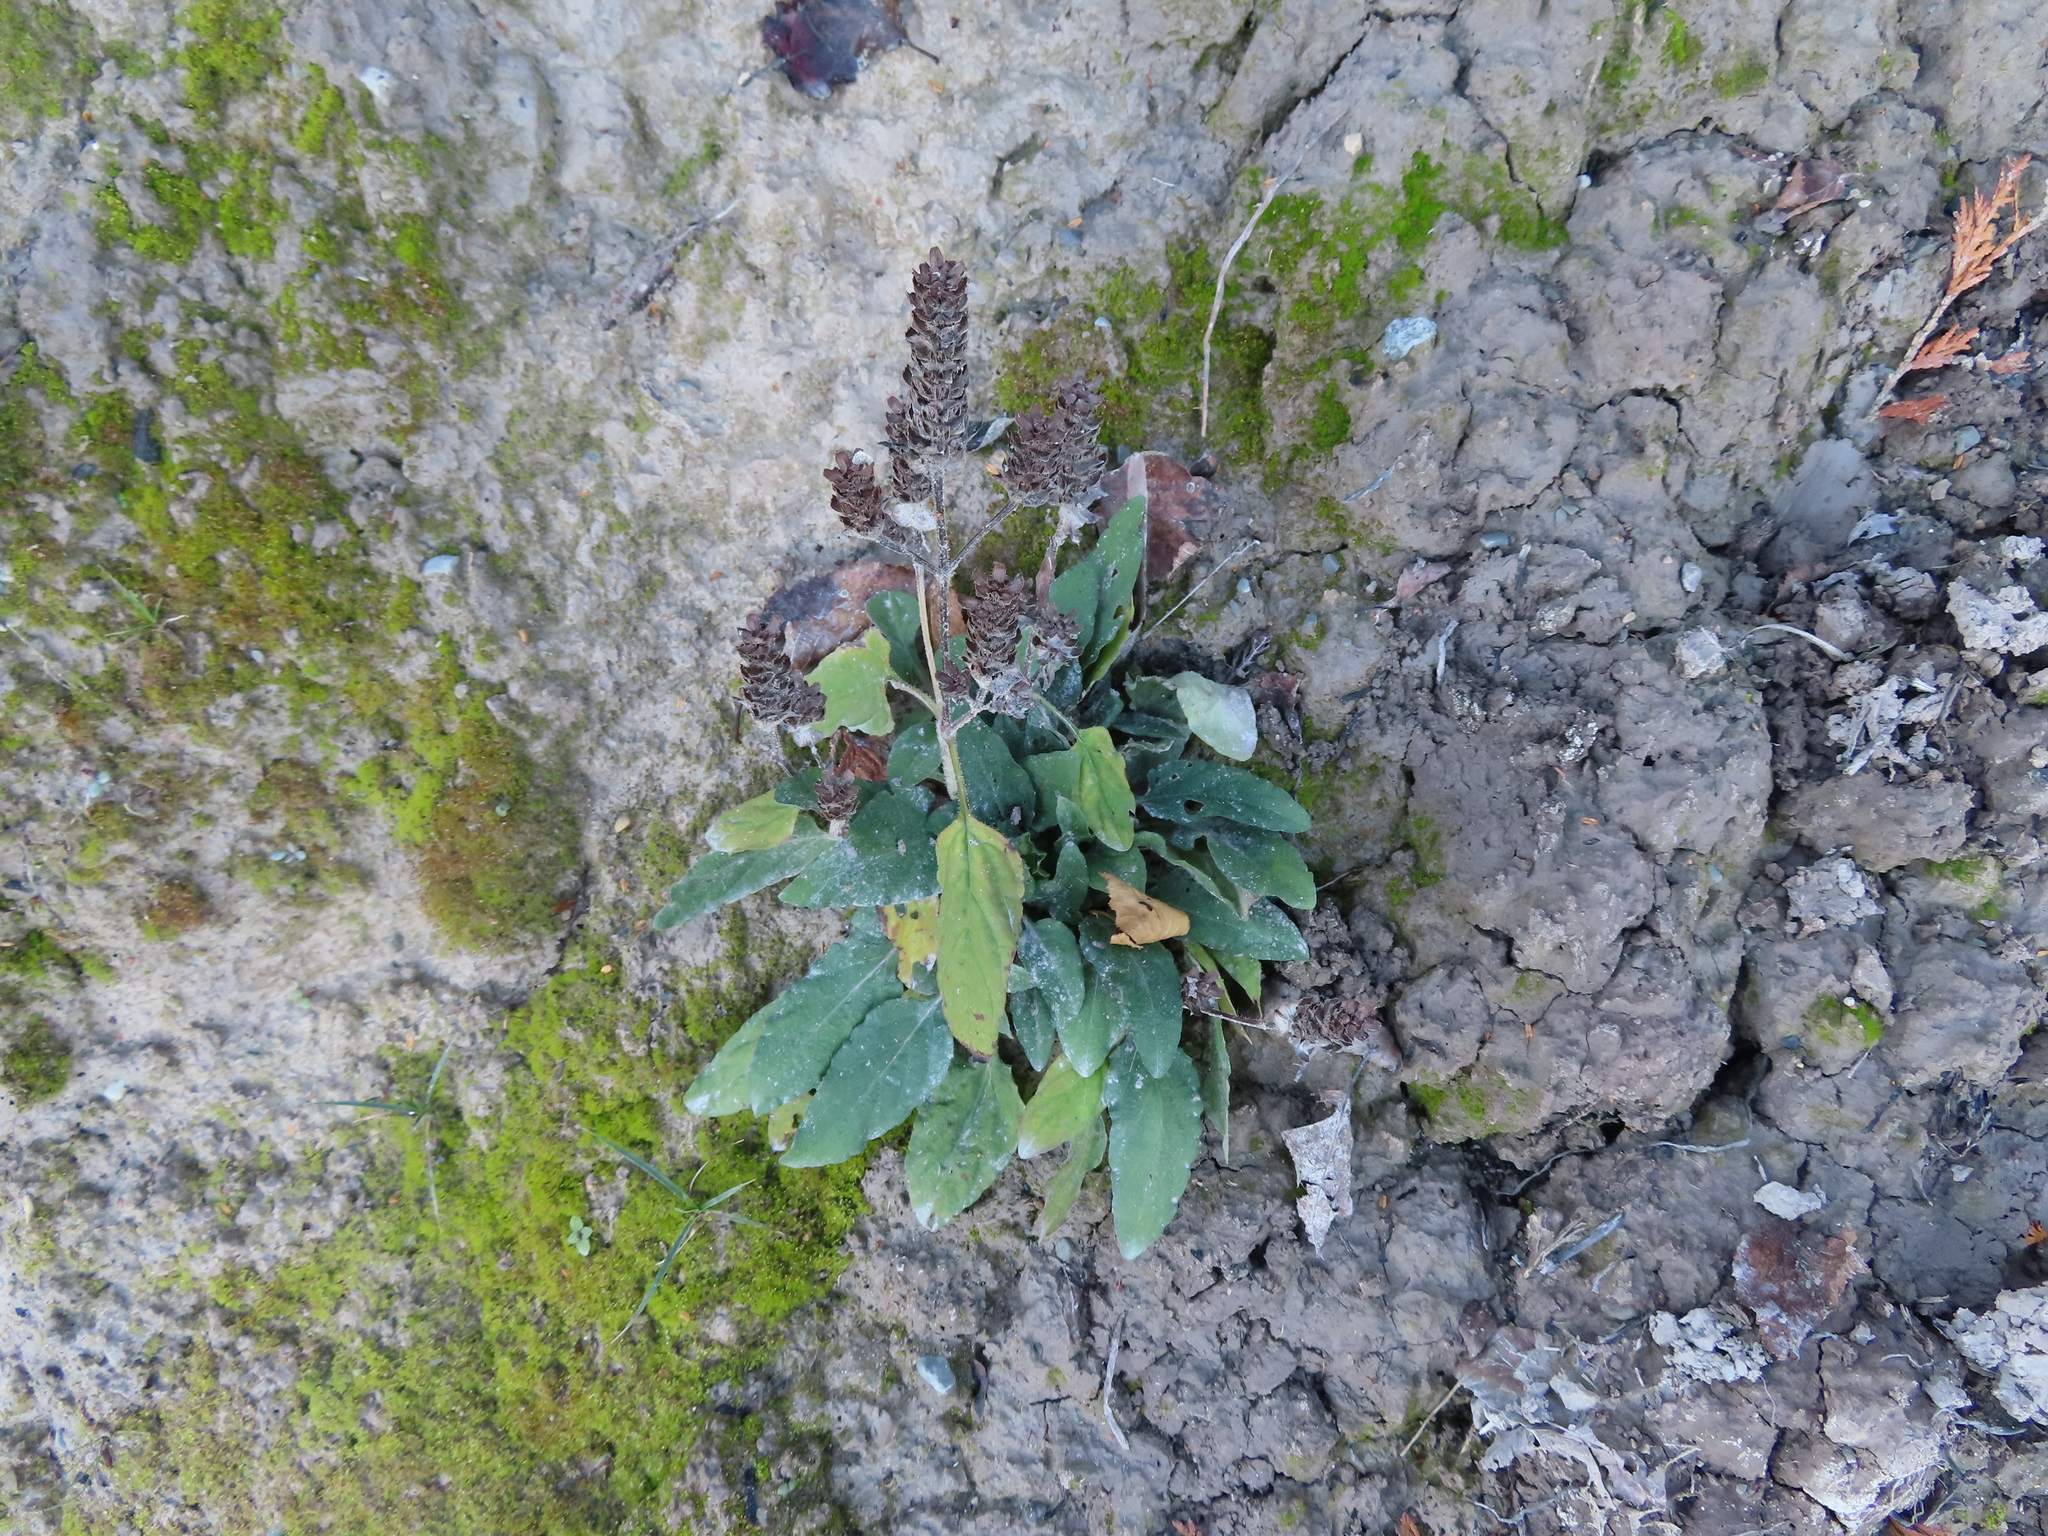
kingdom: Plantae
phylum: Tracheophyta
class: Magnoliopsida
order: Lamiales
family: Lamiaceae
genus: Prunella
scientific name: Prunella vulgaris
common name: Heal-all
